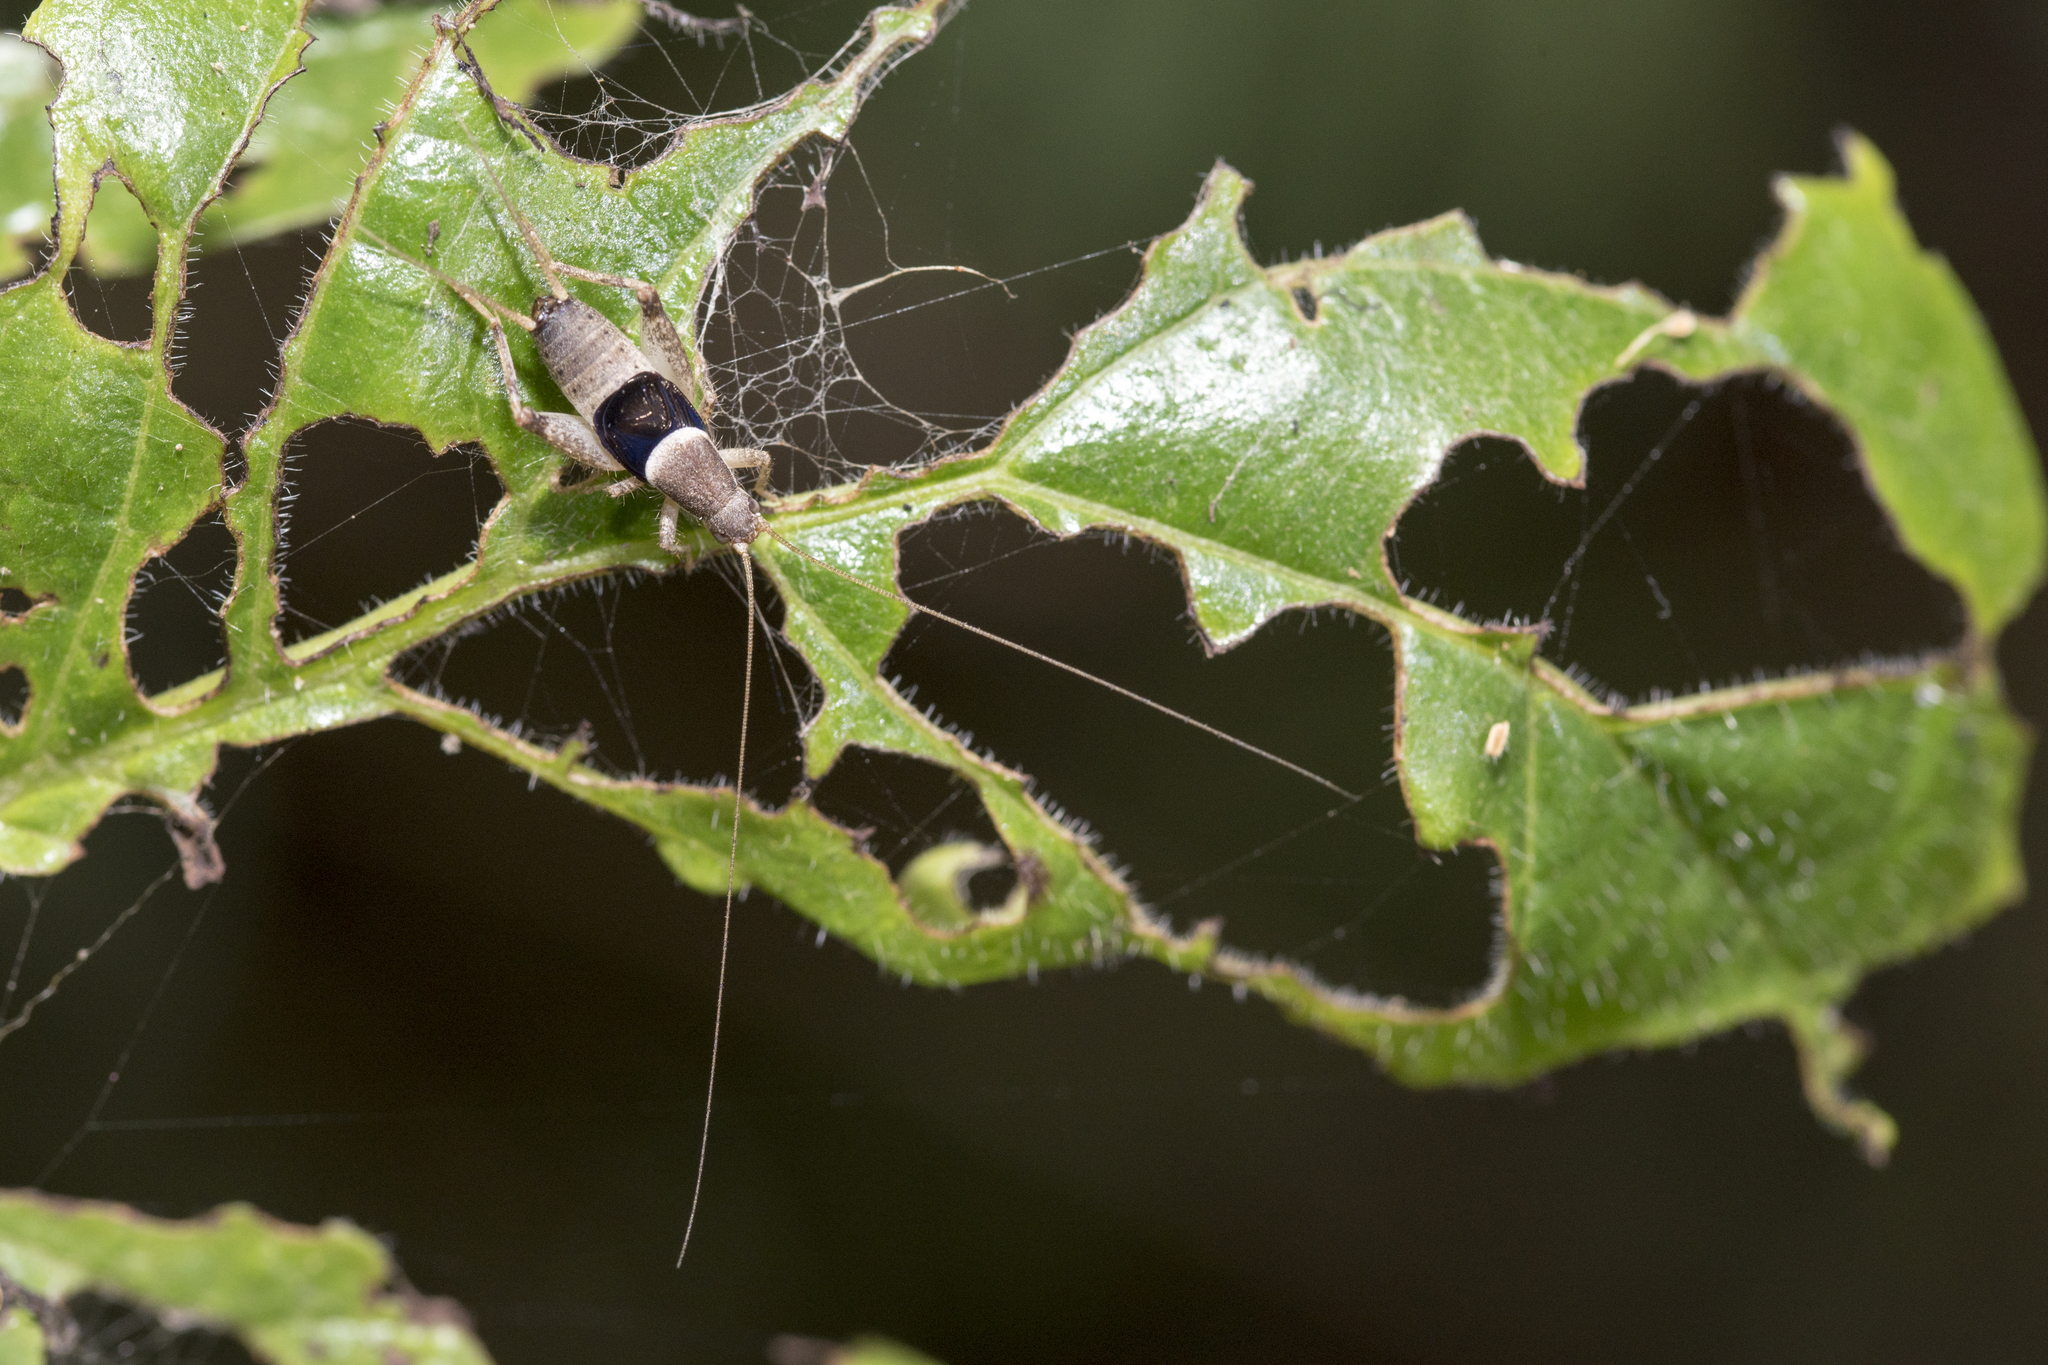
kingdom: Animalia
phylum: Arthropoda
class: Insecta
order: Orthoptera
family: Mogoplistidae
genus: Ornebius
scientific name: Ornebius infuscatus
